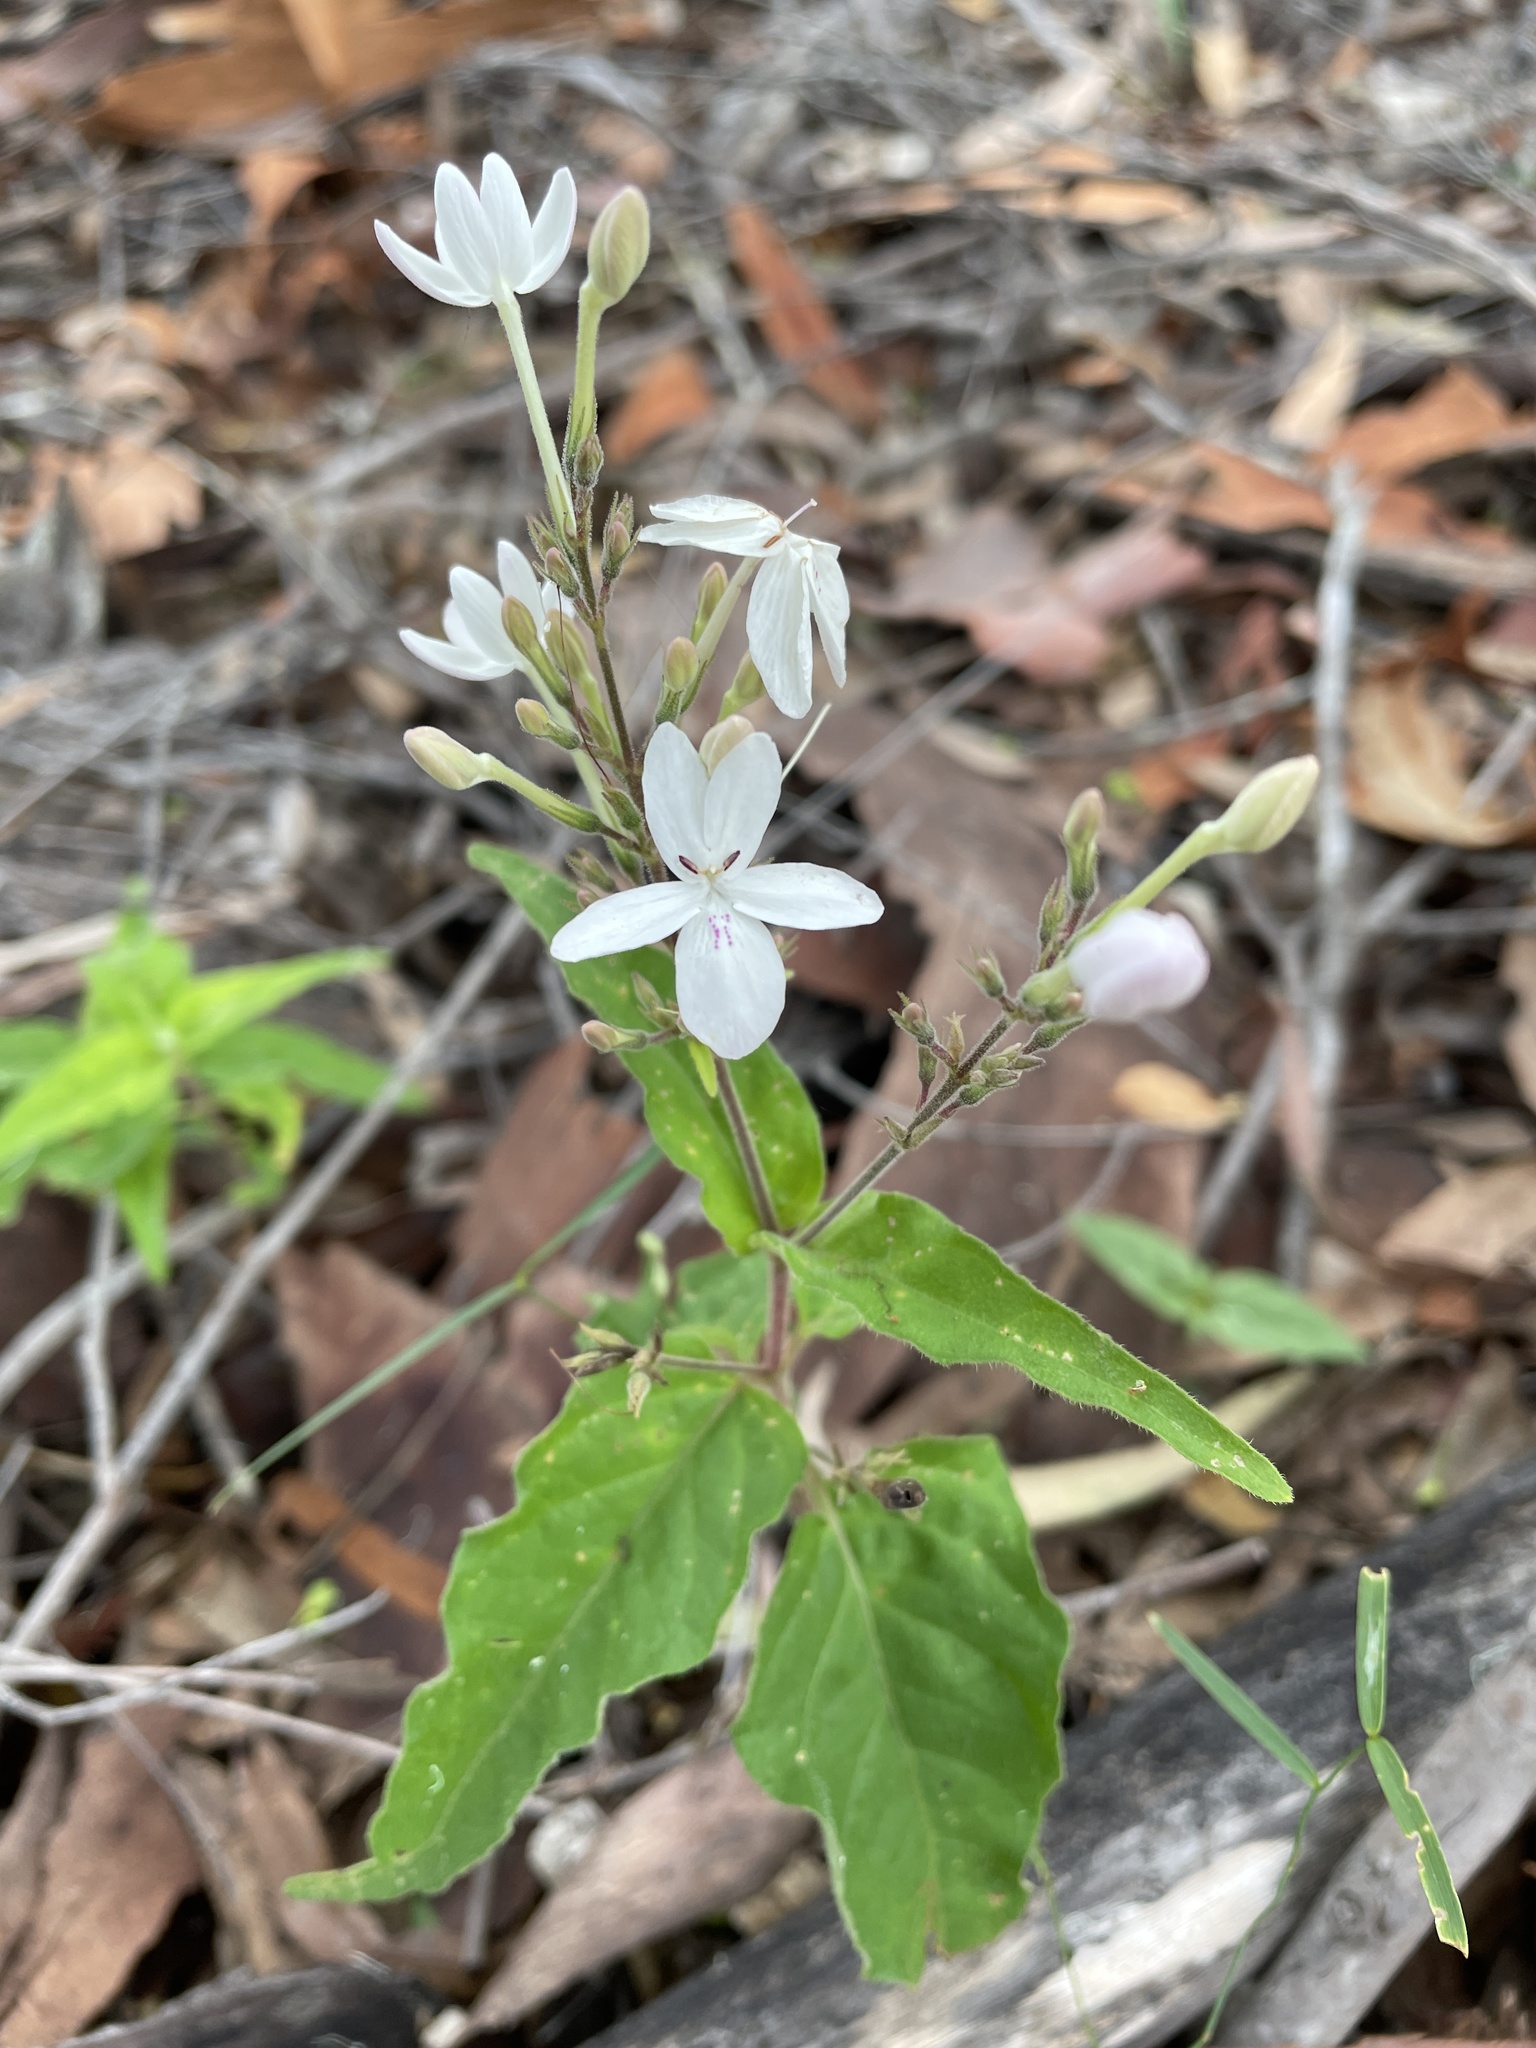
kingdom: Plantae
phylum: Tracheophyta
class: Magnoliopsida
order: Lamiales
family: Acanthaceae
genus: Pseuderanthemum
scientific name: Pseuderanthemum variabile
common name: Night and afternoon
